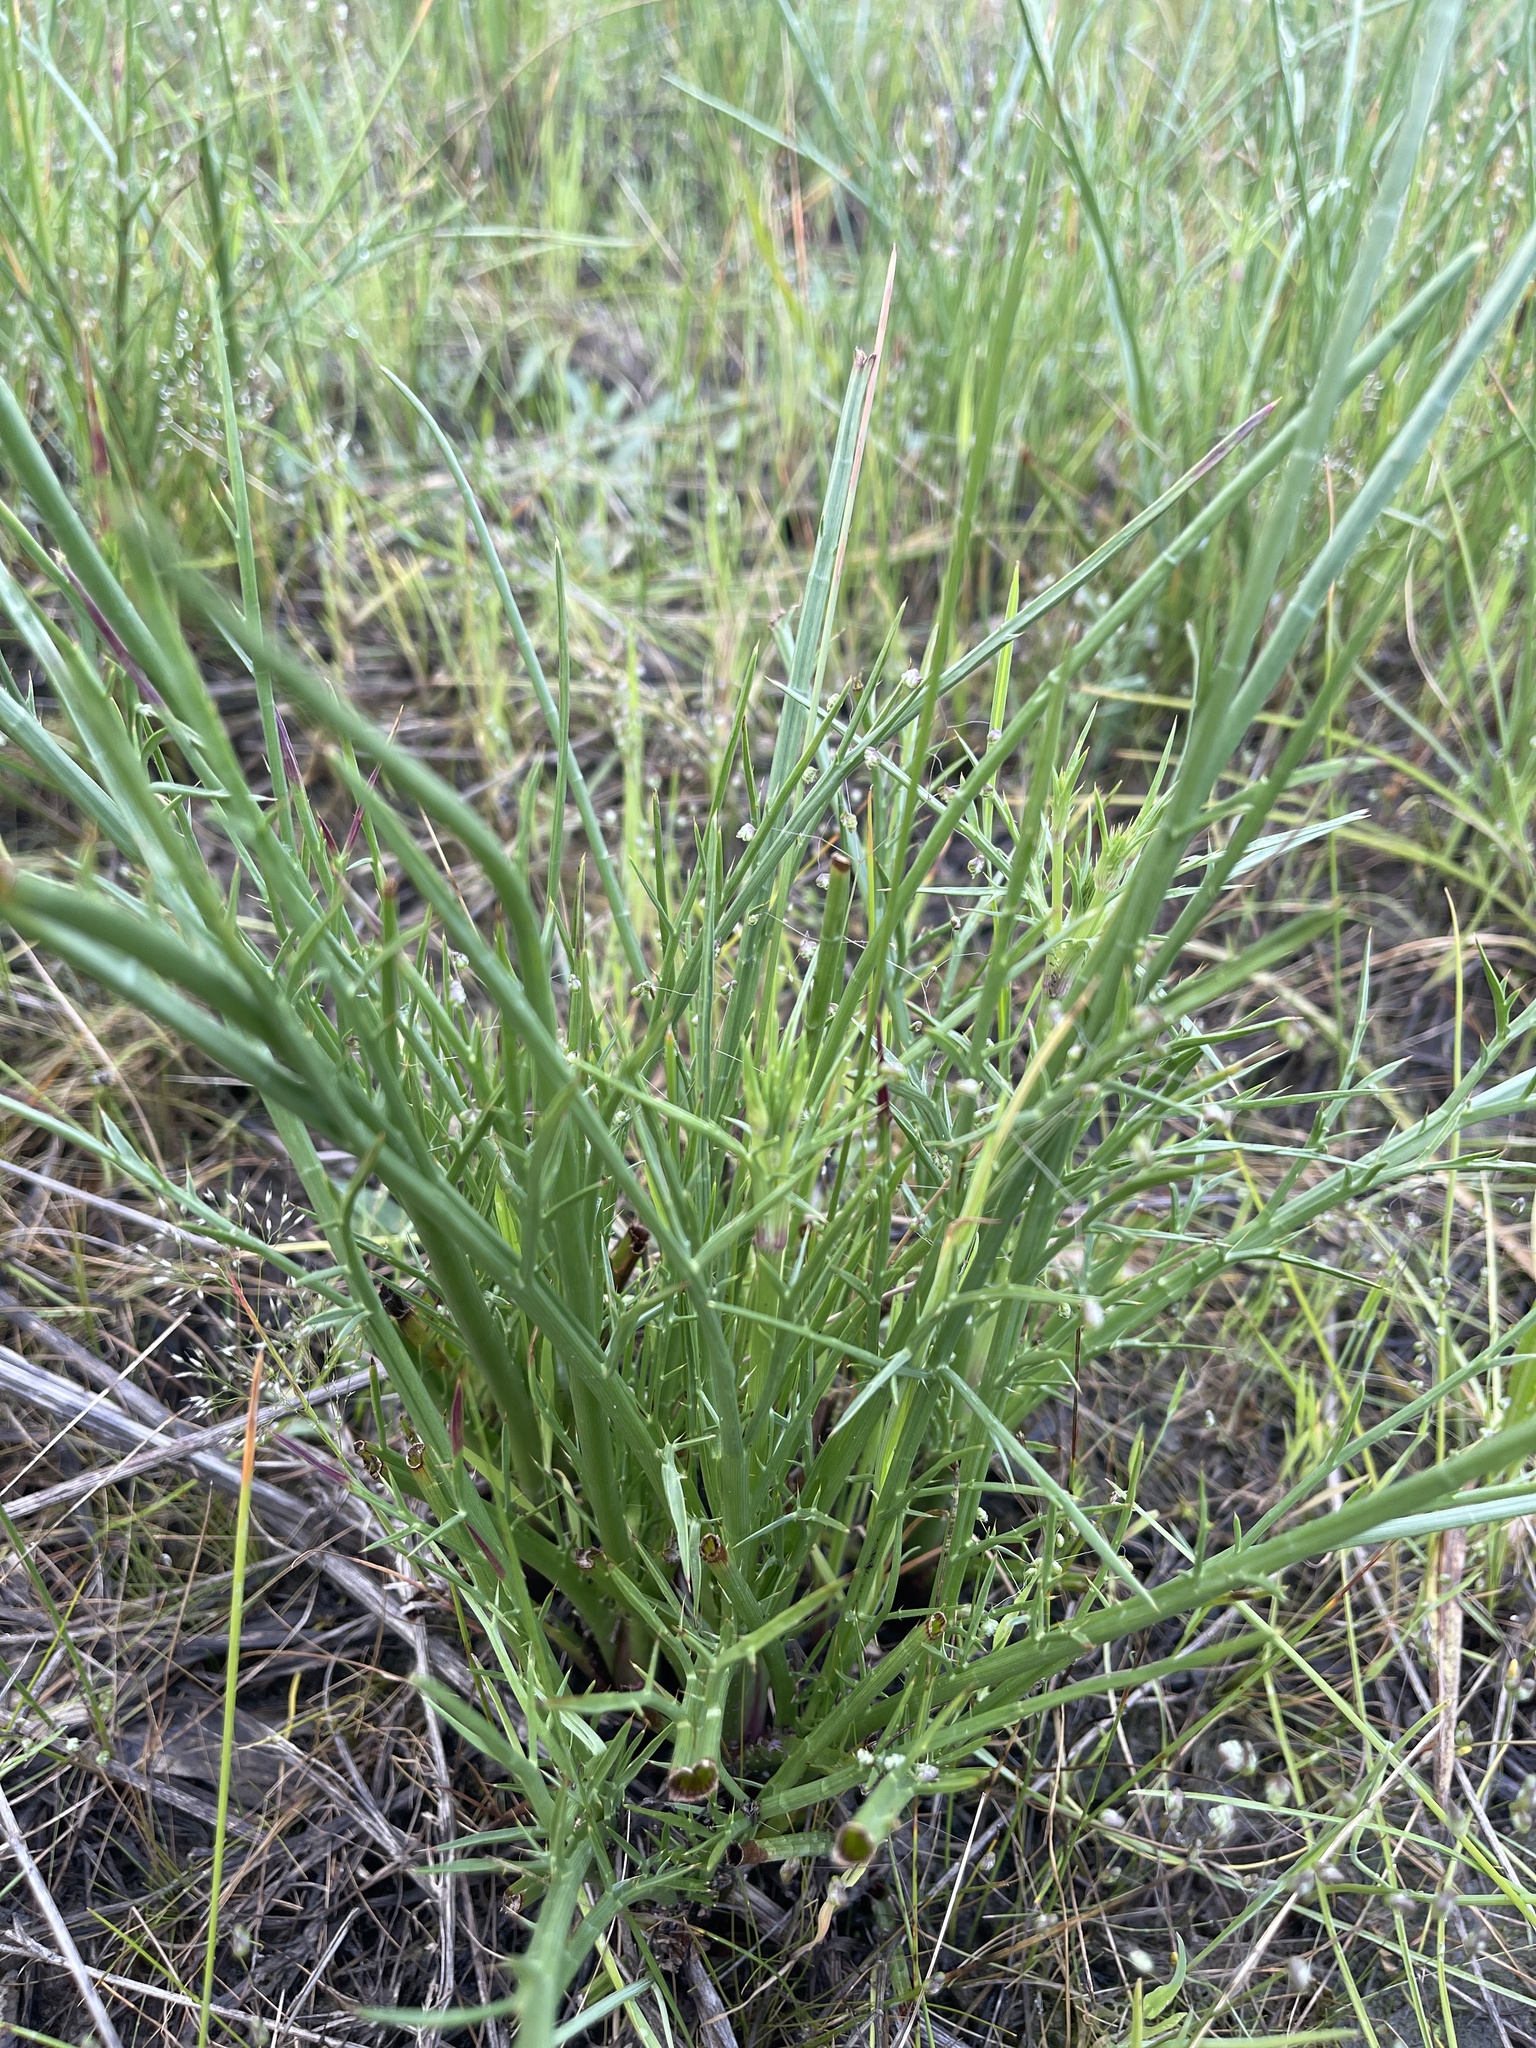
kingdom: Plantae
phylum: Tracheophyta
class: Magnoliopsida
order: Apiales
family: Apiaceae
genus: Eryngium
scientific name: Eryngium ovinum
